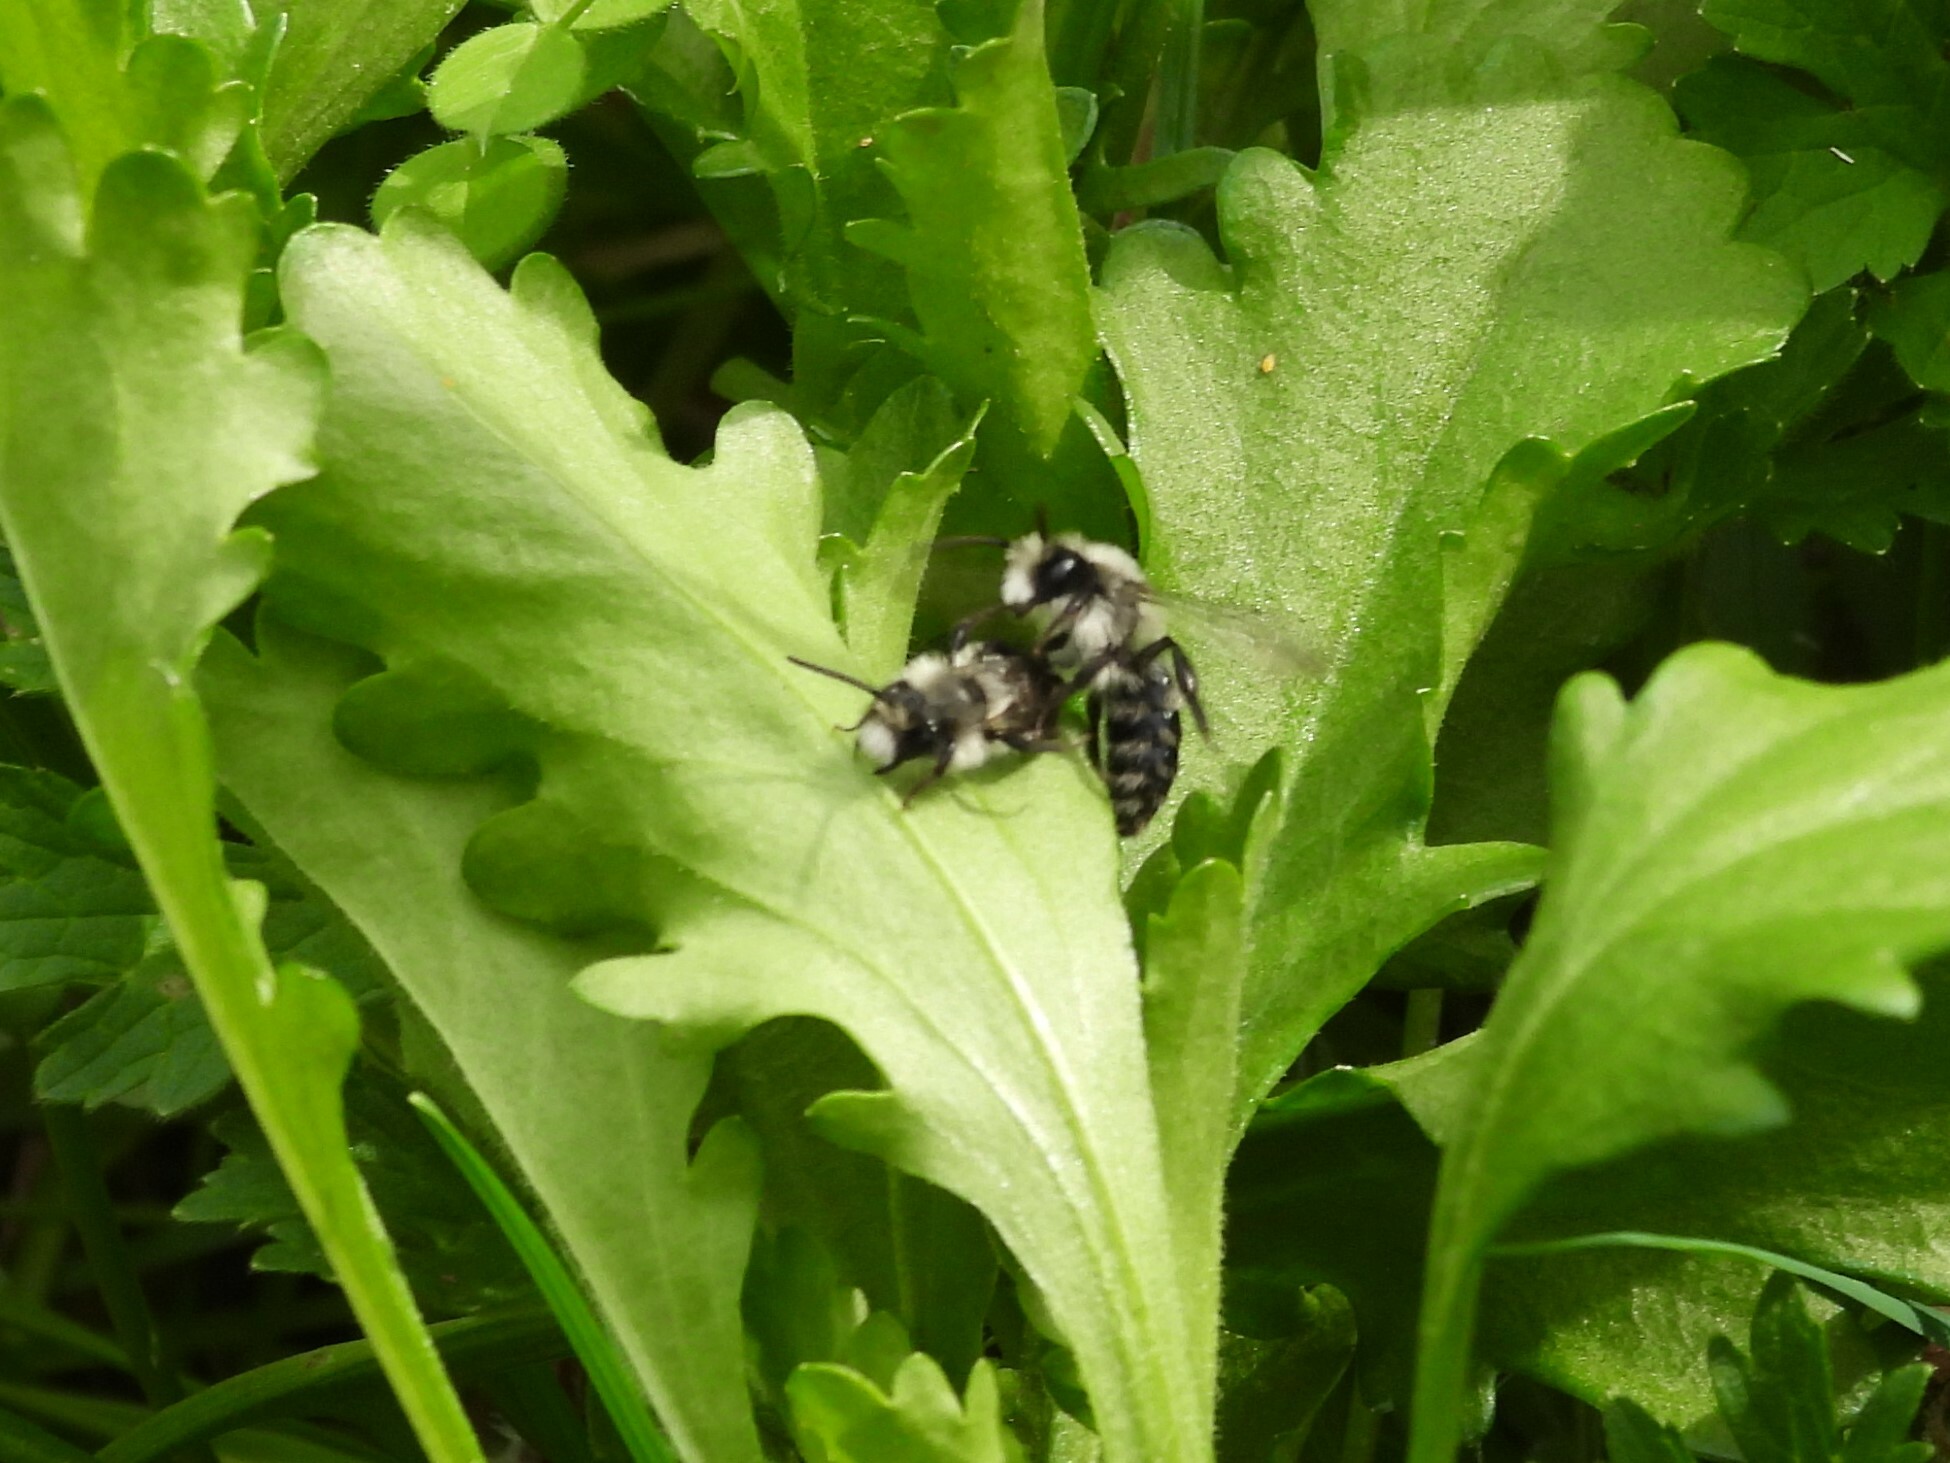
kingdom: Animalia
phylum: Arthropoda
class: Insecta
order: Hymenoptera
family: Andrenidae
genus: Andrena
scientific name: Andrena cineraria
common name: Ashy mining bee
